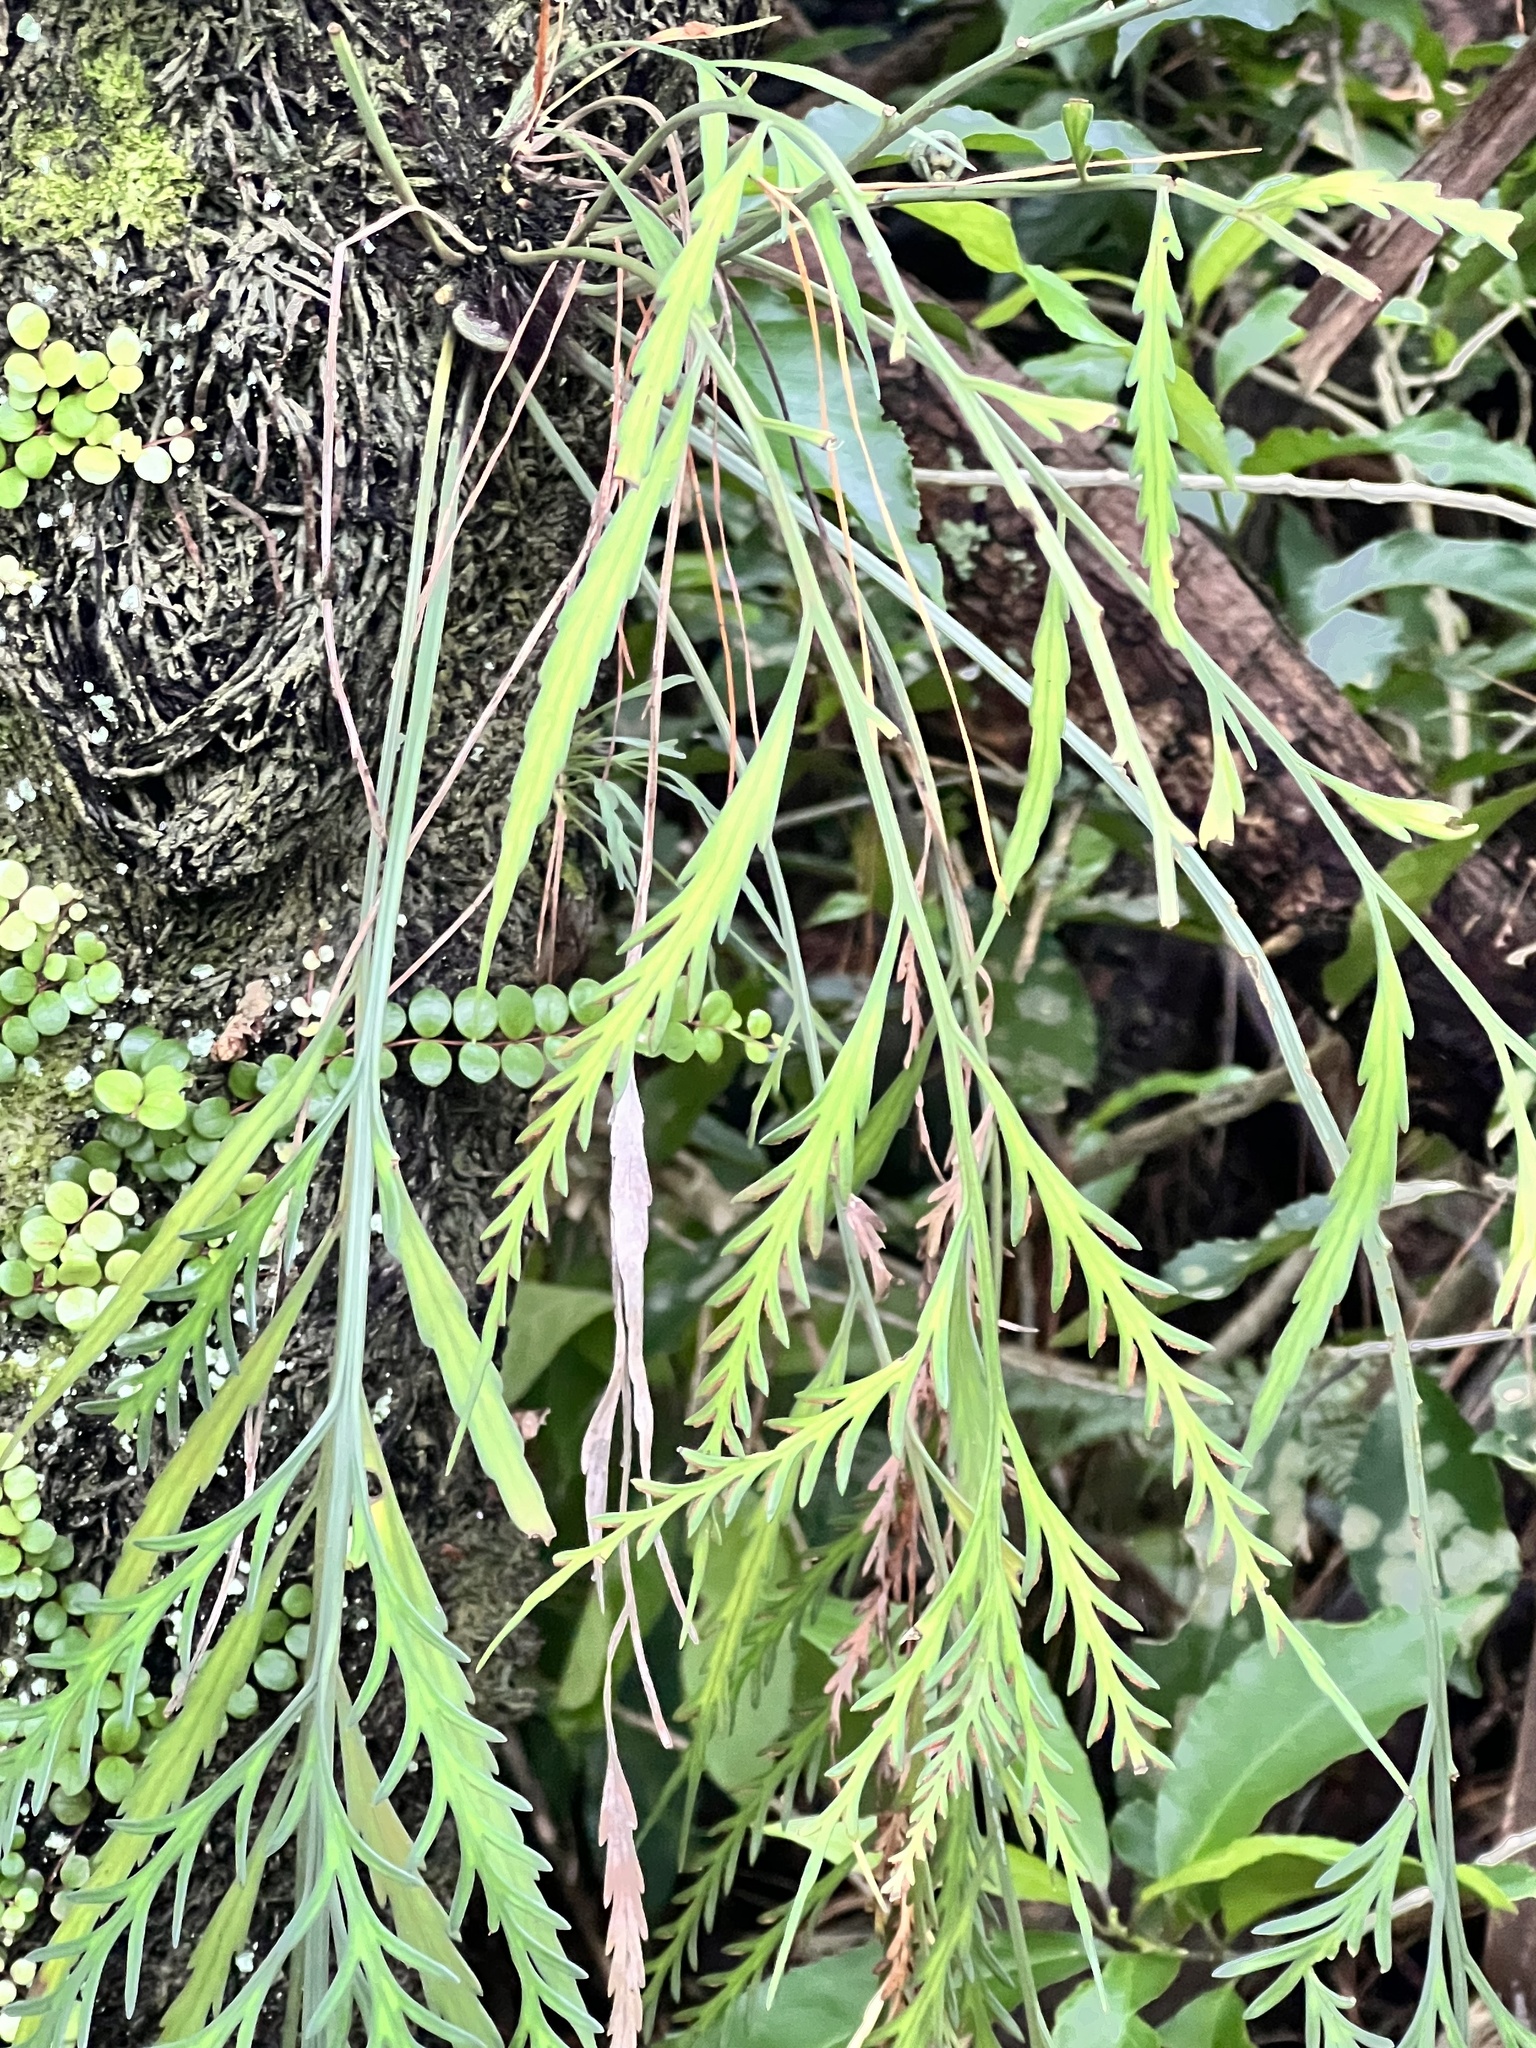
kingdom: Plantae
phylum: Tracheophyta
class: Polypodiopsida
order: Polypodiales
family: Aspleniaceae
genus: Asplenium
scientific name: Asplenium flaccidum
